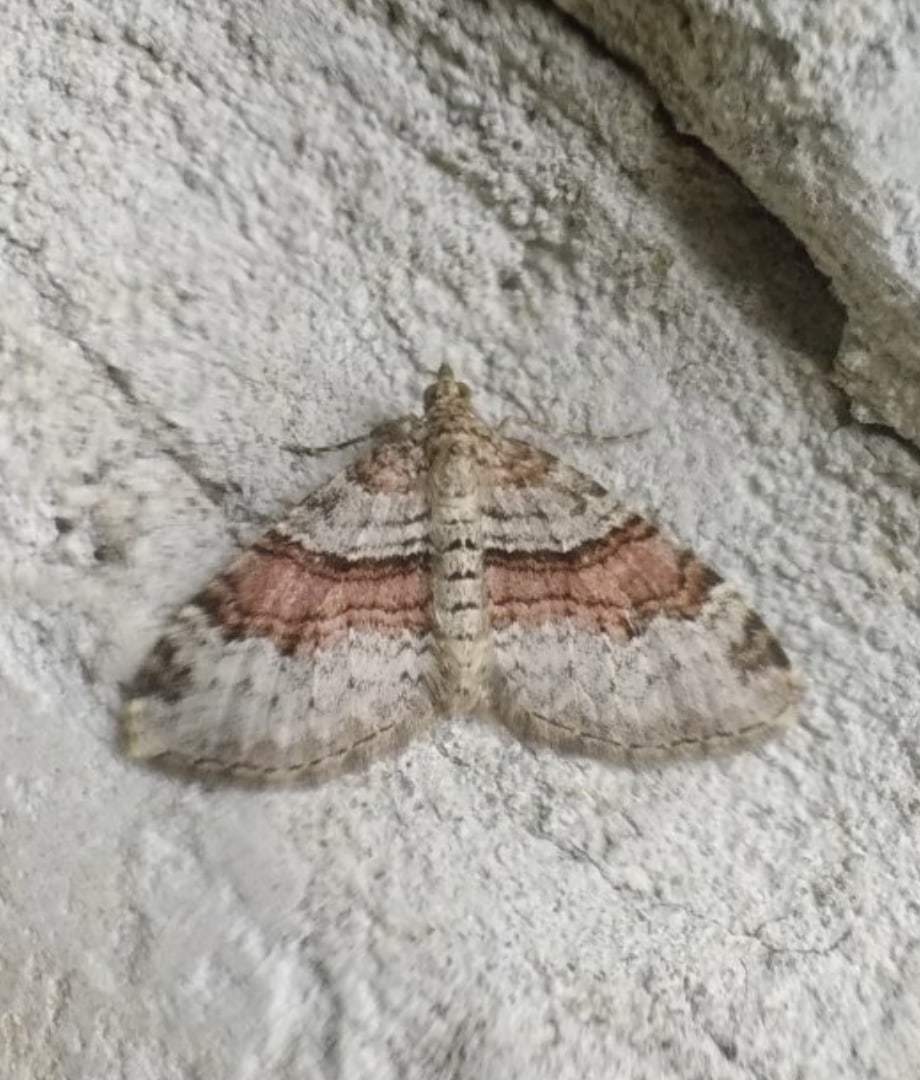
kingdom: Animalia
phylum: Arthropoda
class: Insecta
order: Lepidoptera
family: Geometridae
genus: Xanthorhoe
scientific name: Xanthorhoe designata
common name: Flame carpet
